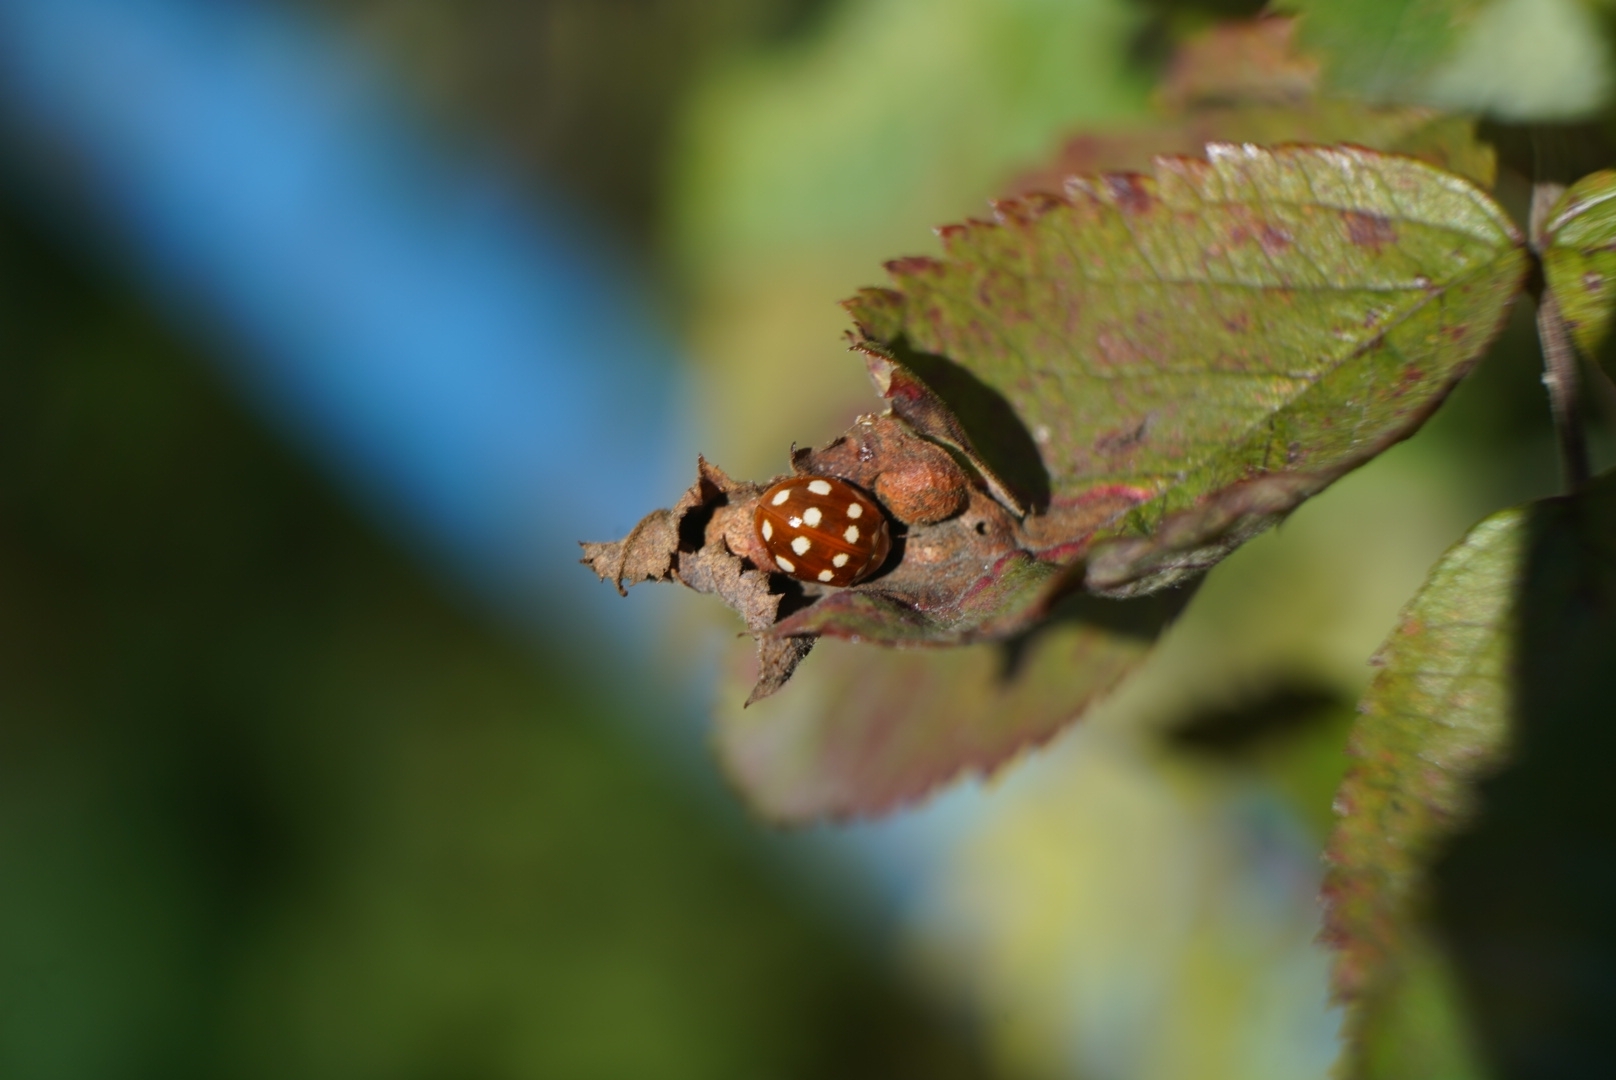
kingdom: Animalia
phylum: Arthropoda
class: Insecta
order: Coleoptera
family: Coccinellidae
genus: Calvia
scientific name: Calvia quatuordecimguttata
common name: Cream-spot ladybird
